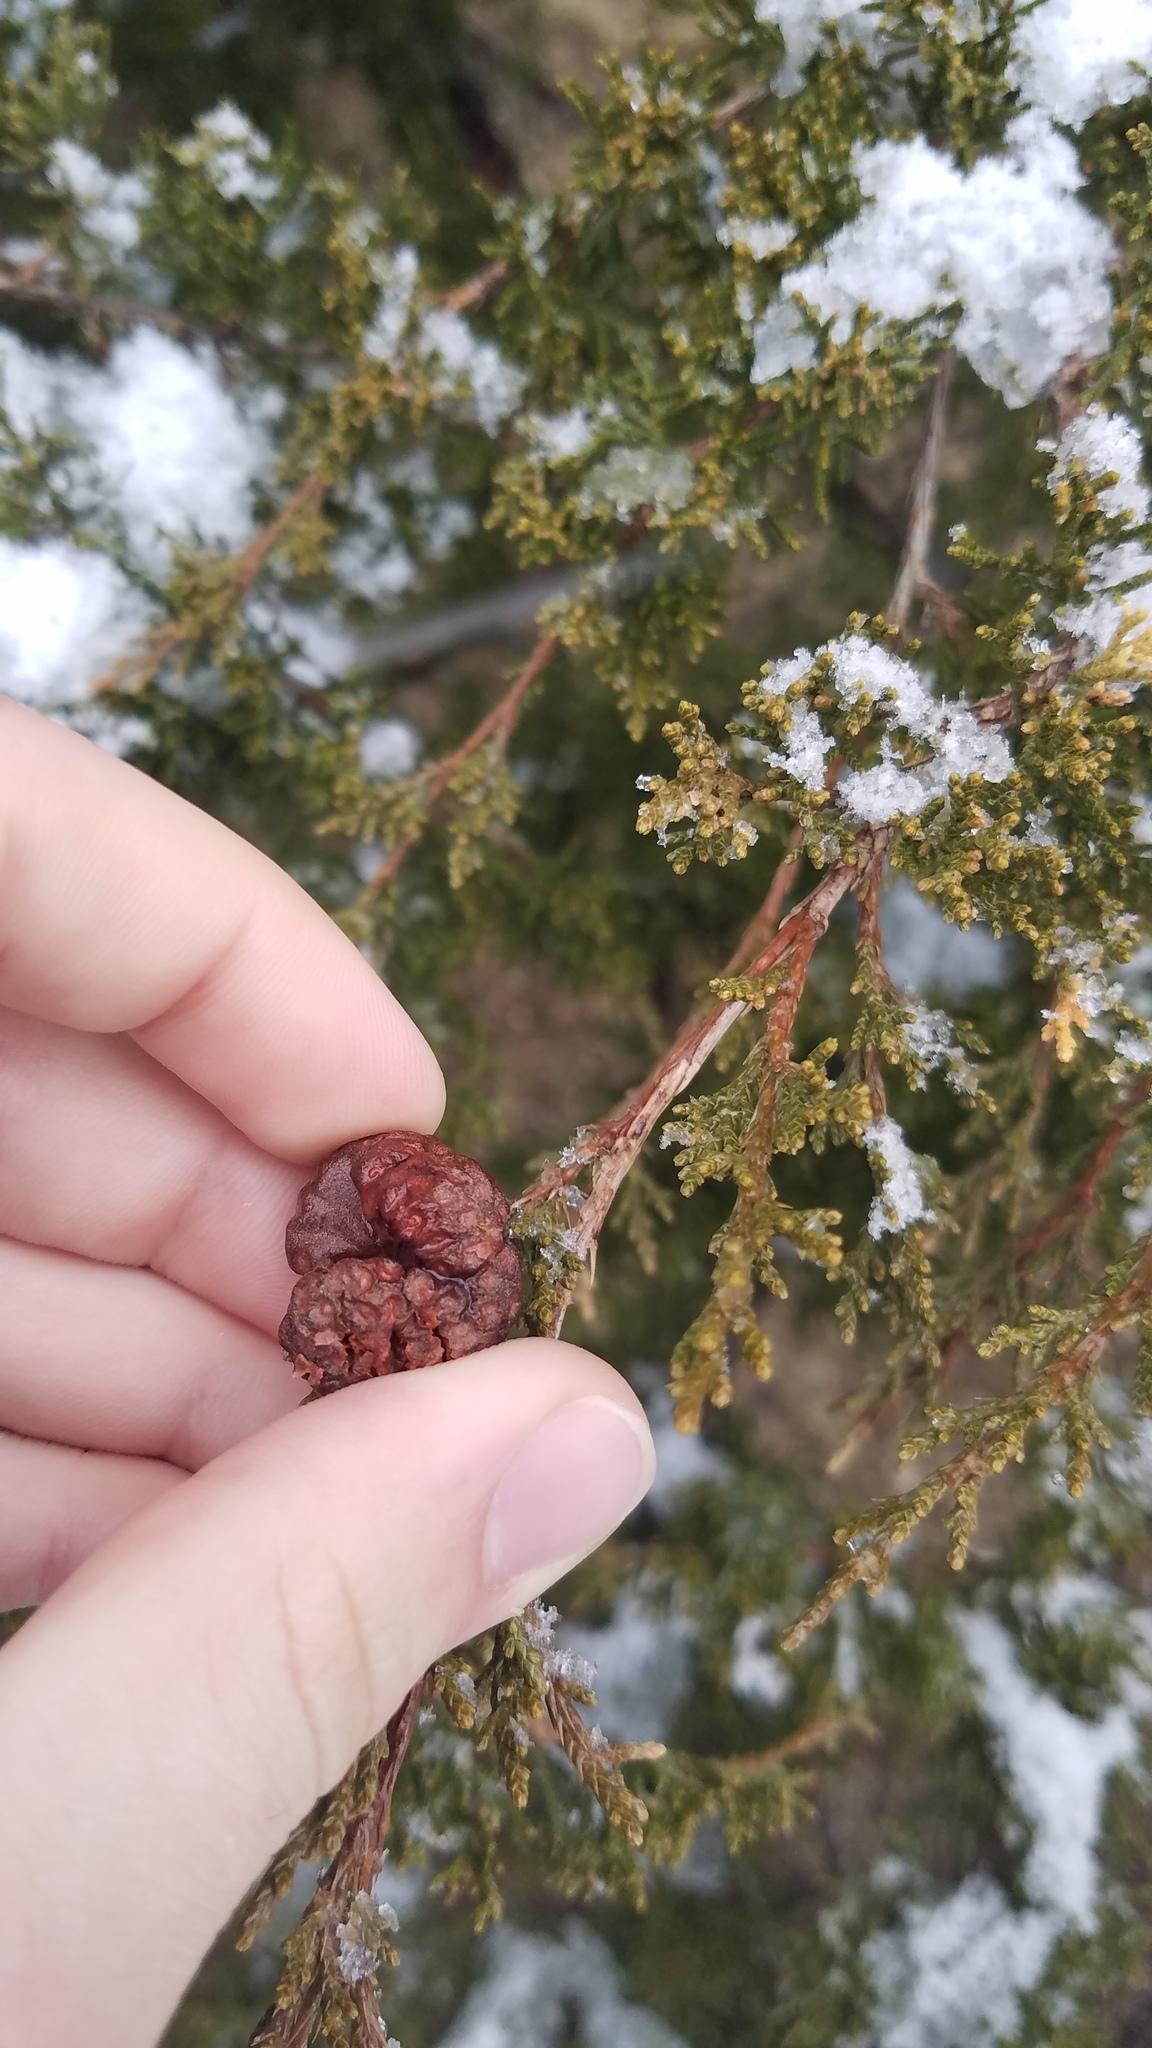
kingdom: Fungi
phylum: Basidiomycota
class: Pucciniomycetes
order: Pucciniales
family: Gymnosporangiaceae
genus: Gymnosporangium
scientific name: Gymnosporangium juniperi-virginianae
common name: Juniper-apple rust
